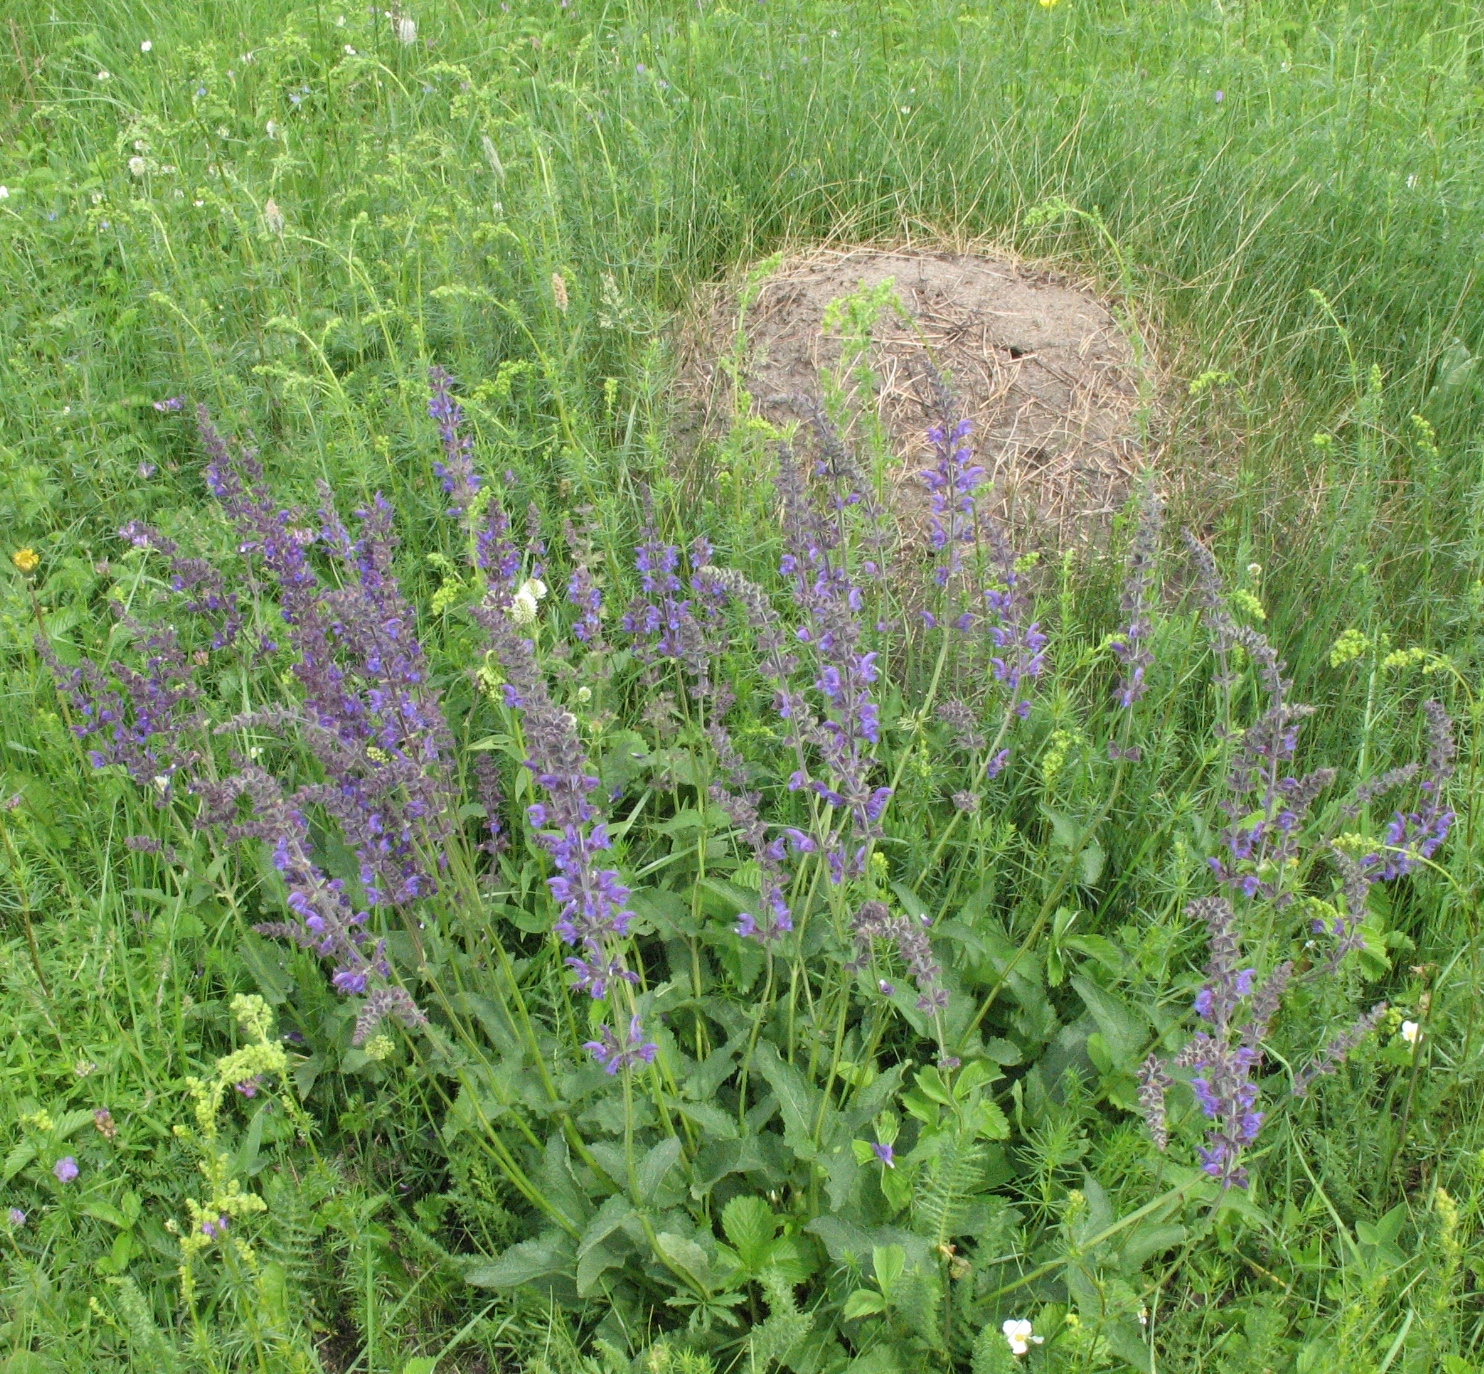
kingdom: Plantae
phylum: Tracheophyta
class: Magnoliopsida
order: Lamiales
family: Lamiaceae
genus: Salvia
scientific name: Salvia dumetorum
